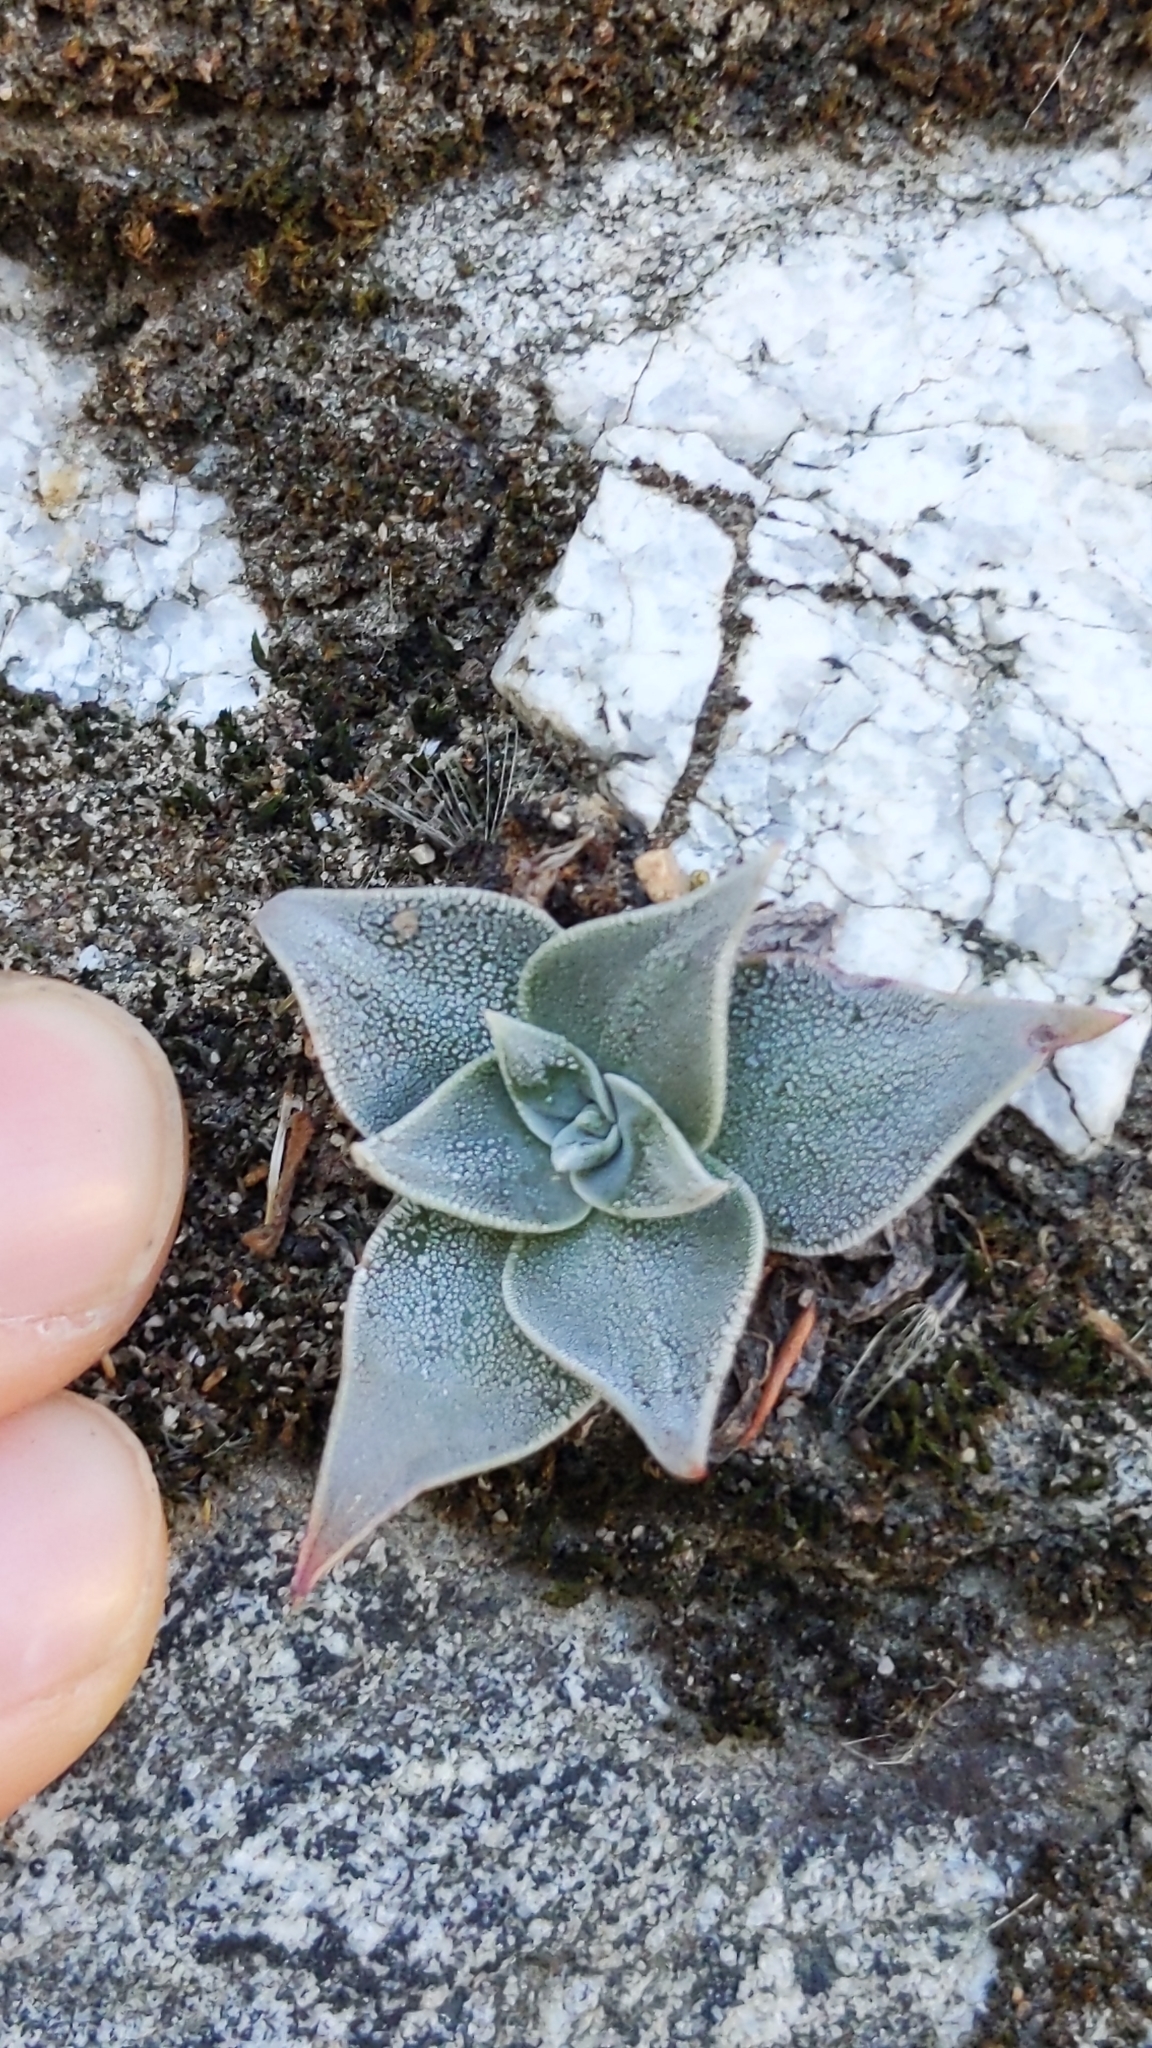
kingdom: Plantae
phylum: Tracheophyta
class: Magnoliopsida
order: Saxifragales
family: Crassulaceae
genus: Dudleya
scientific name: Dudleya cymosa
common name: Canyon dudleya
